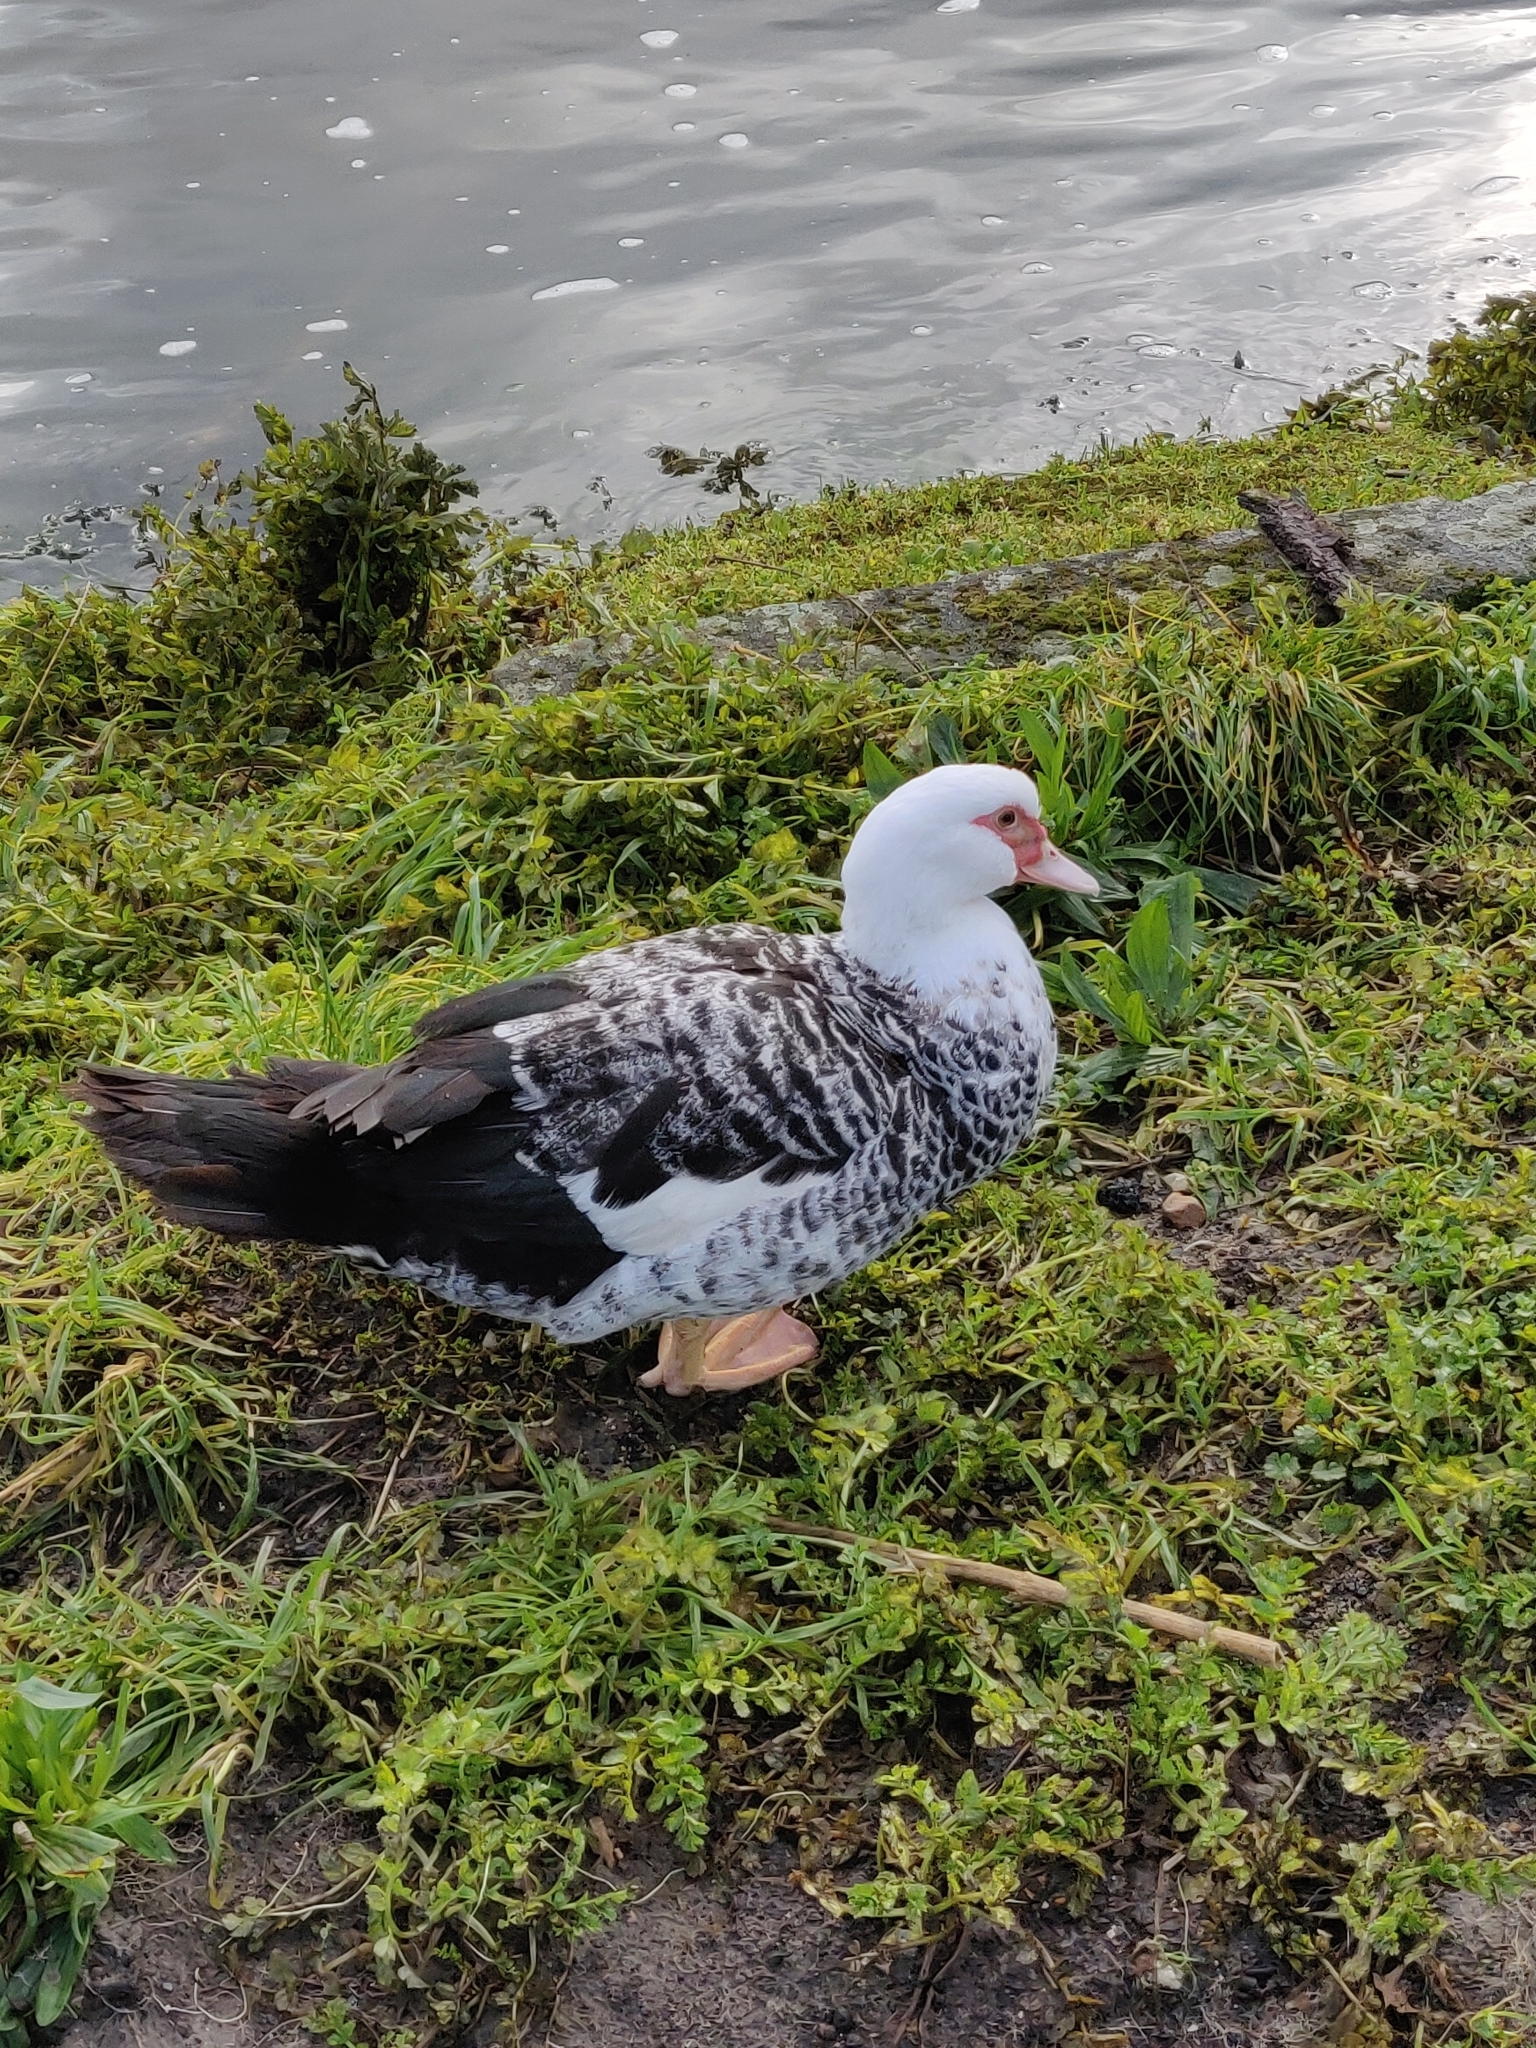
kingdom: Animalia
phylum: Chordata
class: Aves
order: Anseriformes
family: Anatidae
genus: Cairina
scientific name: Cairina moschata
